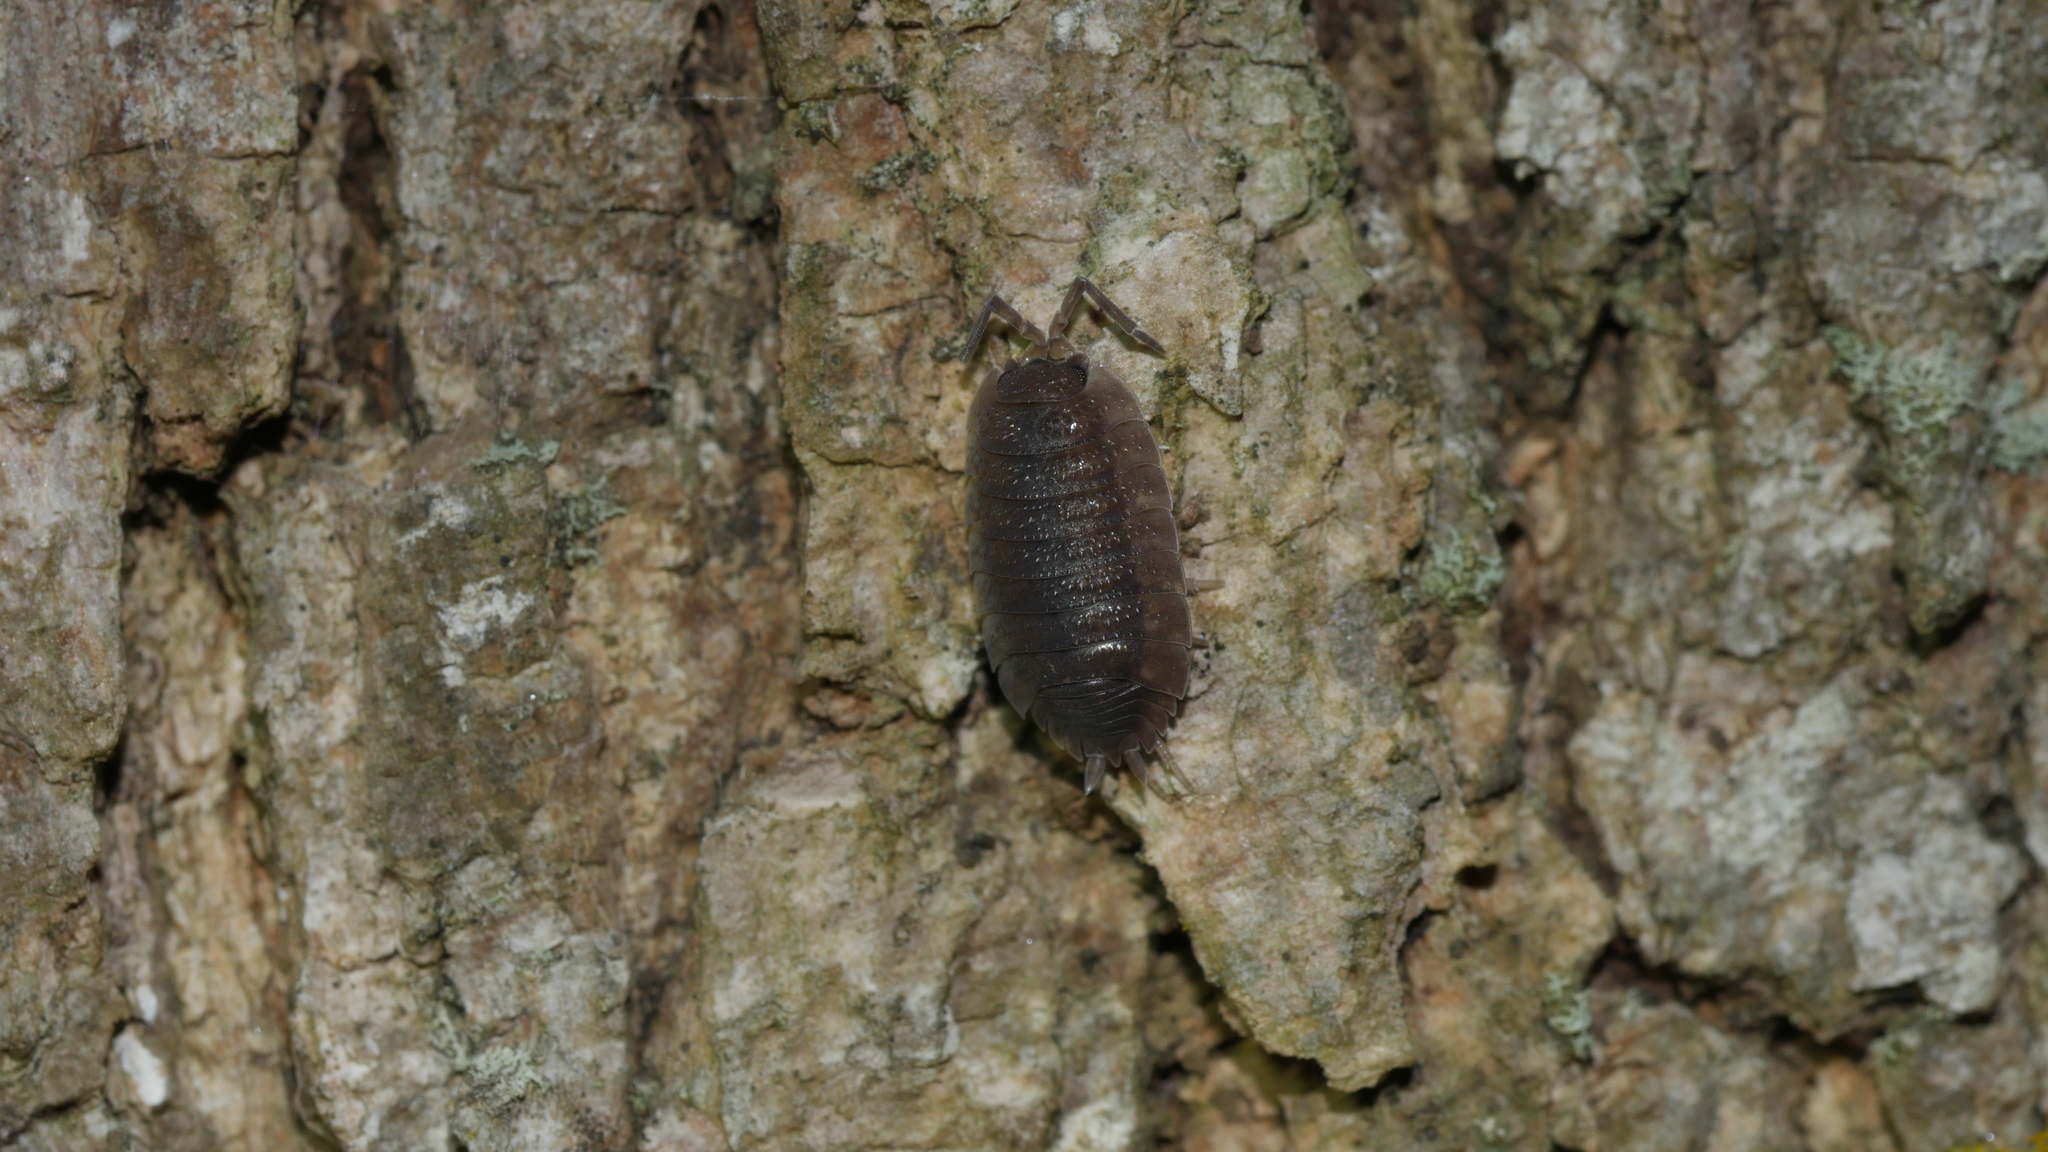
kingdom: Animalia
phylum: Arthropoda
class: Malacostraca
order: Isopoda
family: Porcellionidae
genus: Porcellio
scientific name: Porcellio scaber
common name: Common rough woodlouse
